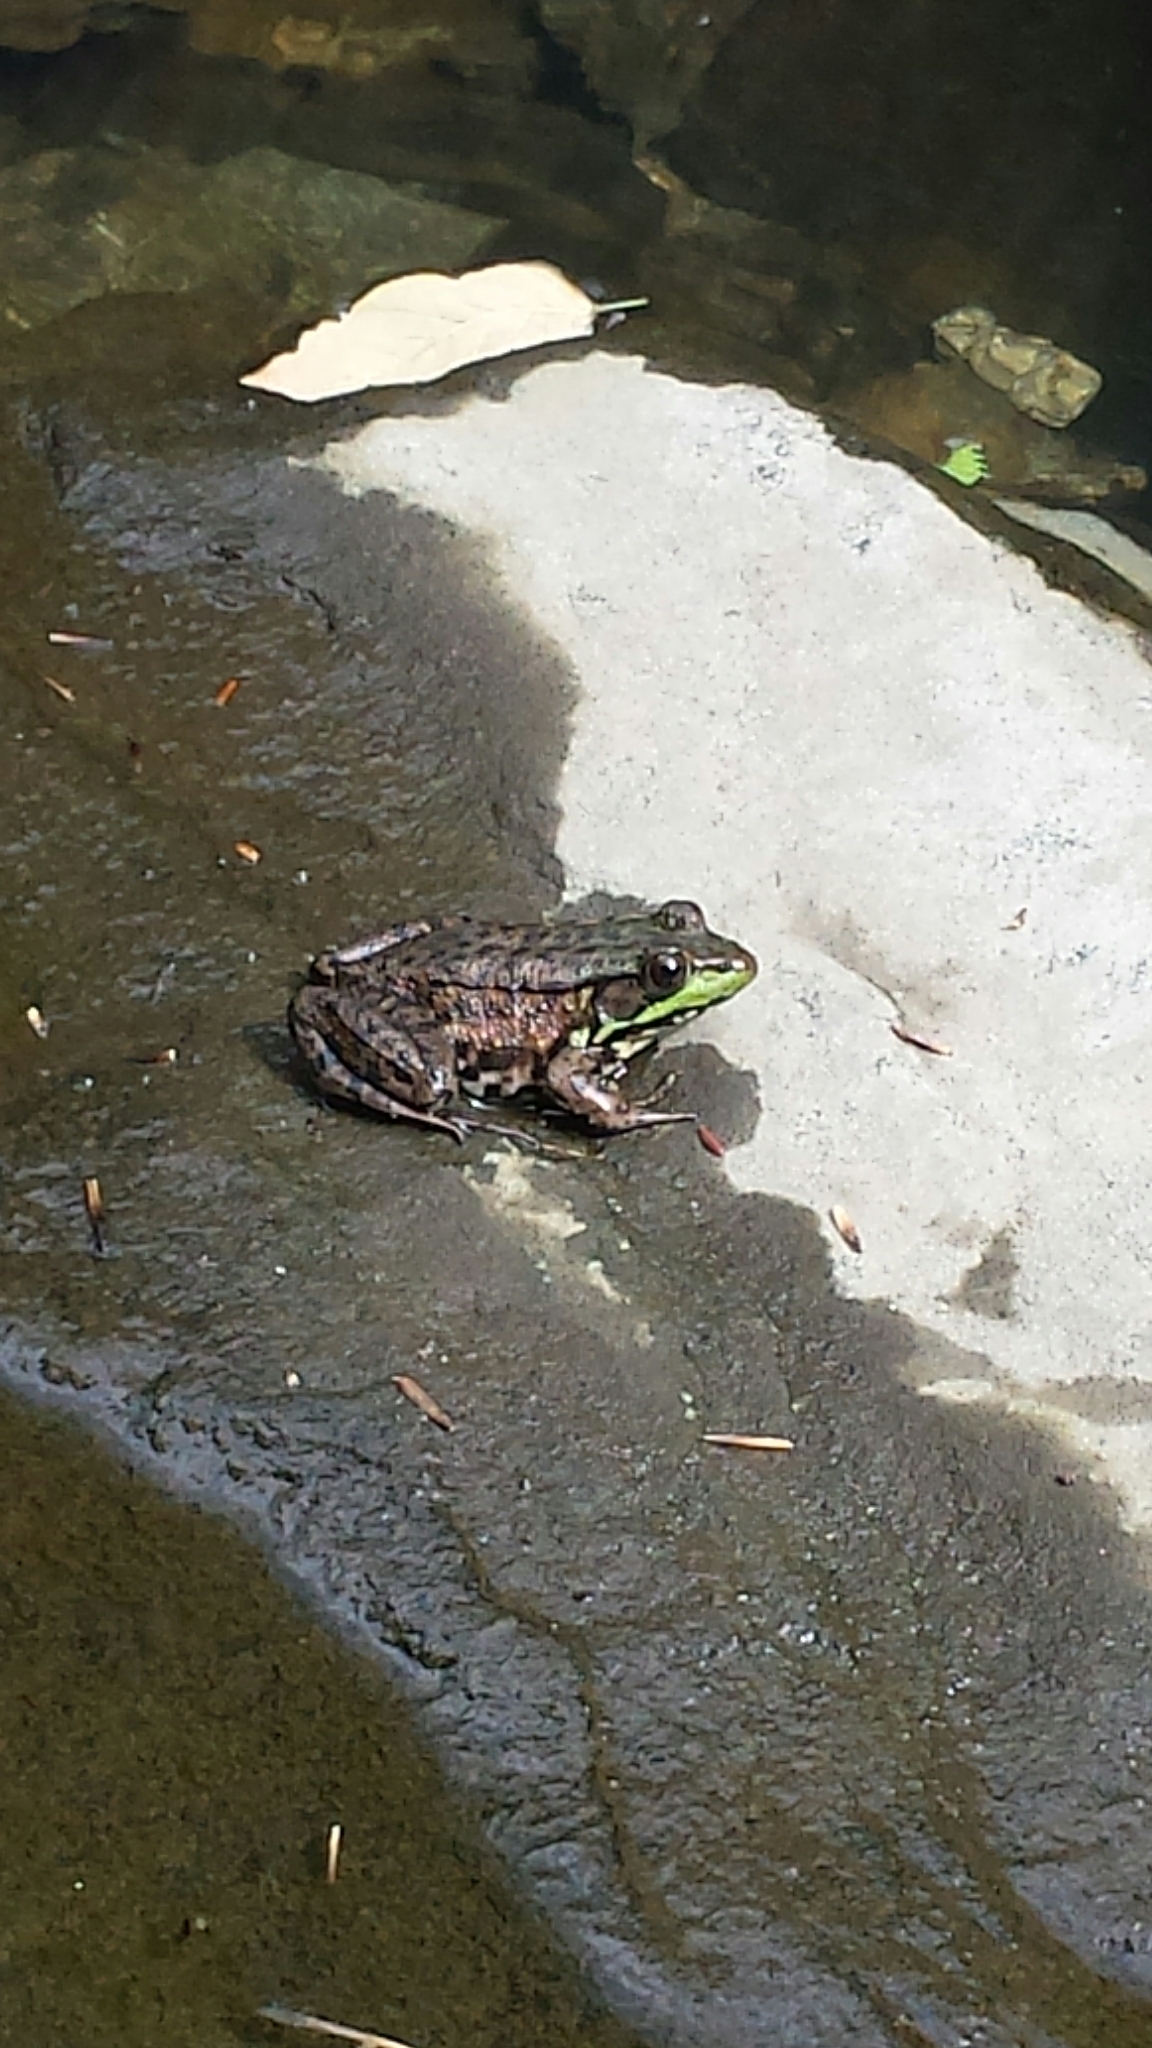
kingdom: Animalia
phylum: Chordata
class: Amphibia
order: Anura
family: Ranidae
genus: Lithobates
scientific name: Lithobates clamitans
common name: Green frog
